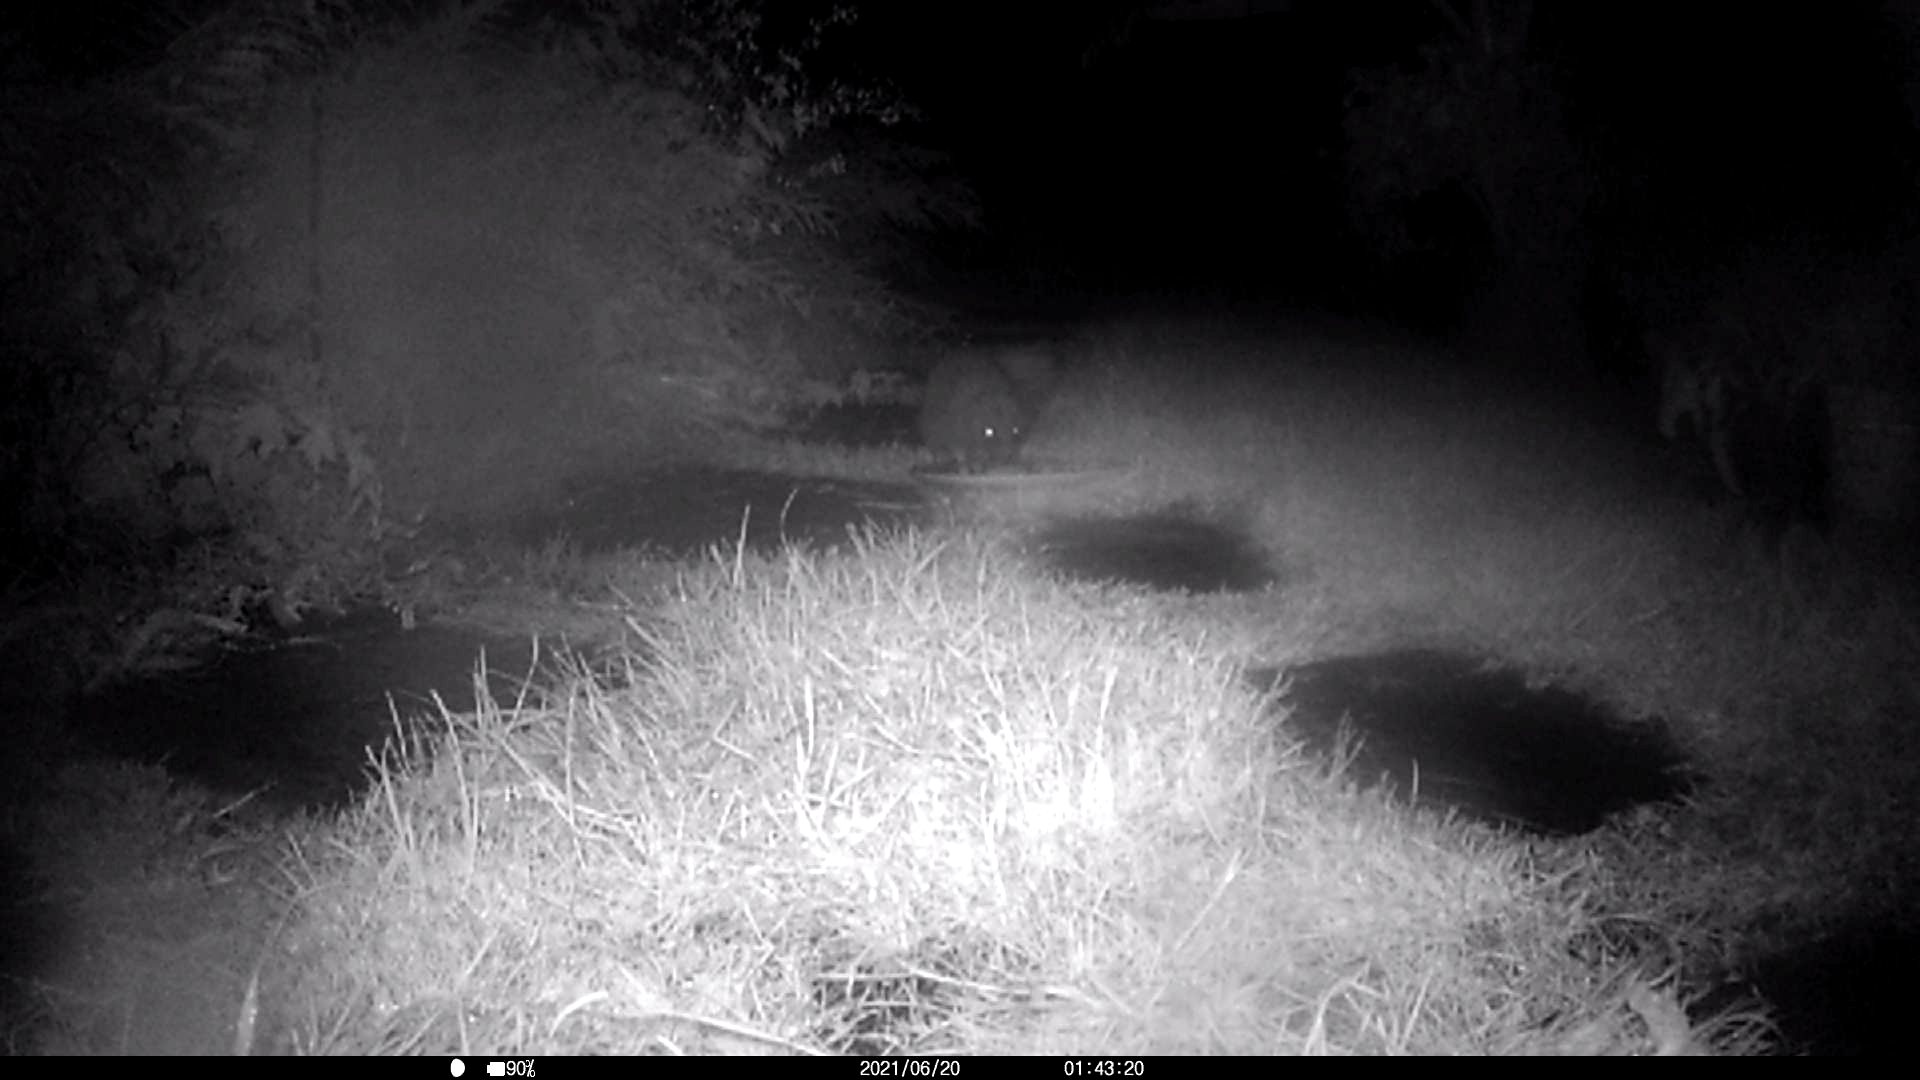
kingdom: Animalia
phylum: Chordata
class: Mammalia
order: Erinaceomorpha
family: Erinaceidae
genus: Erinaceus
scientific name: Erinaceus europaeus
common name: West european hedgehog
